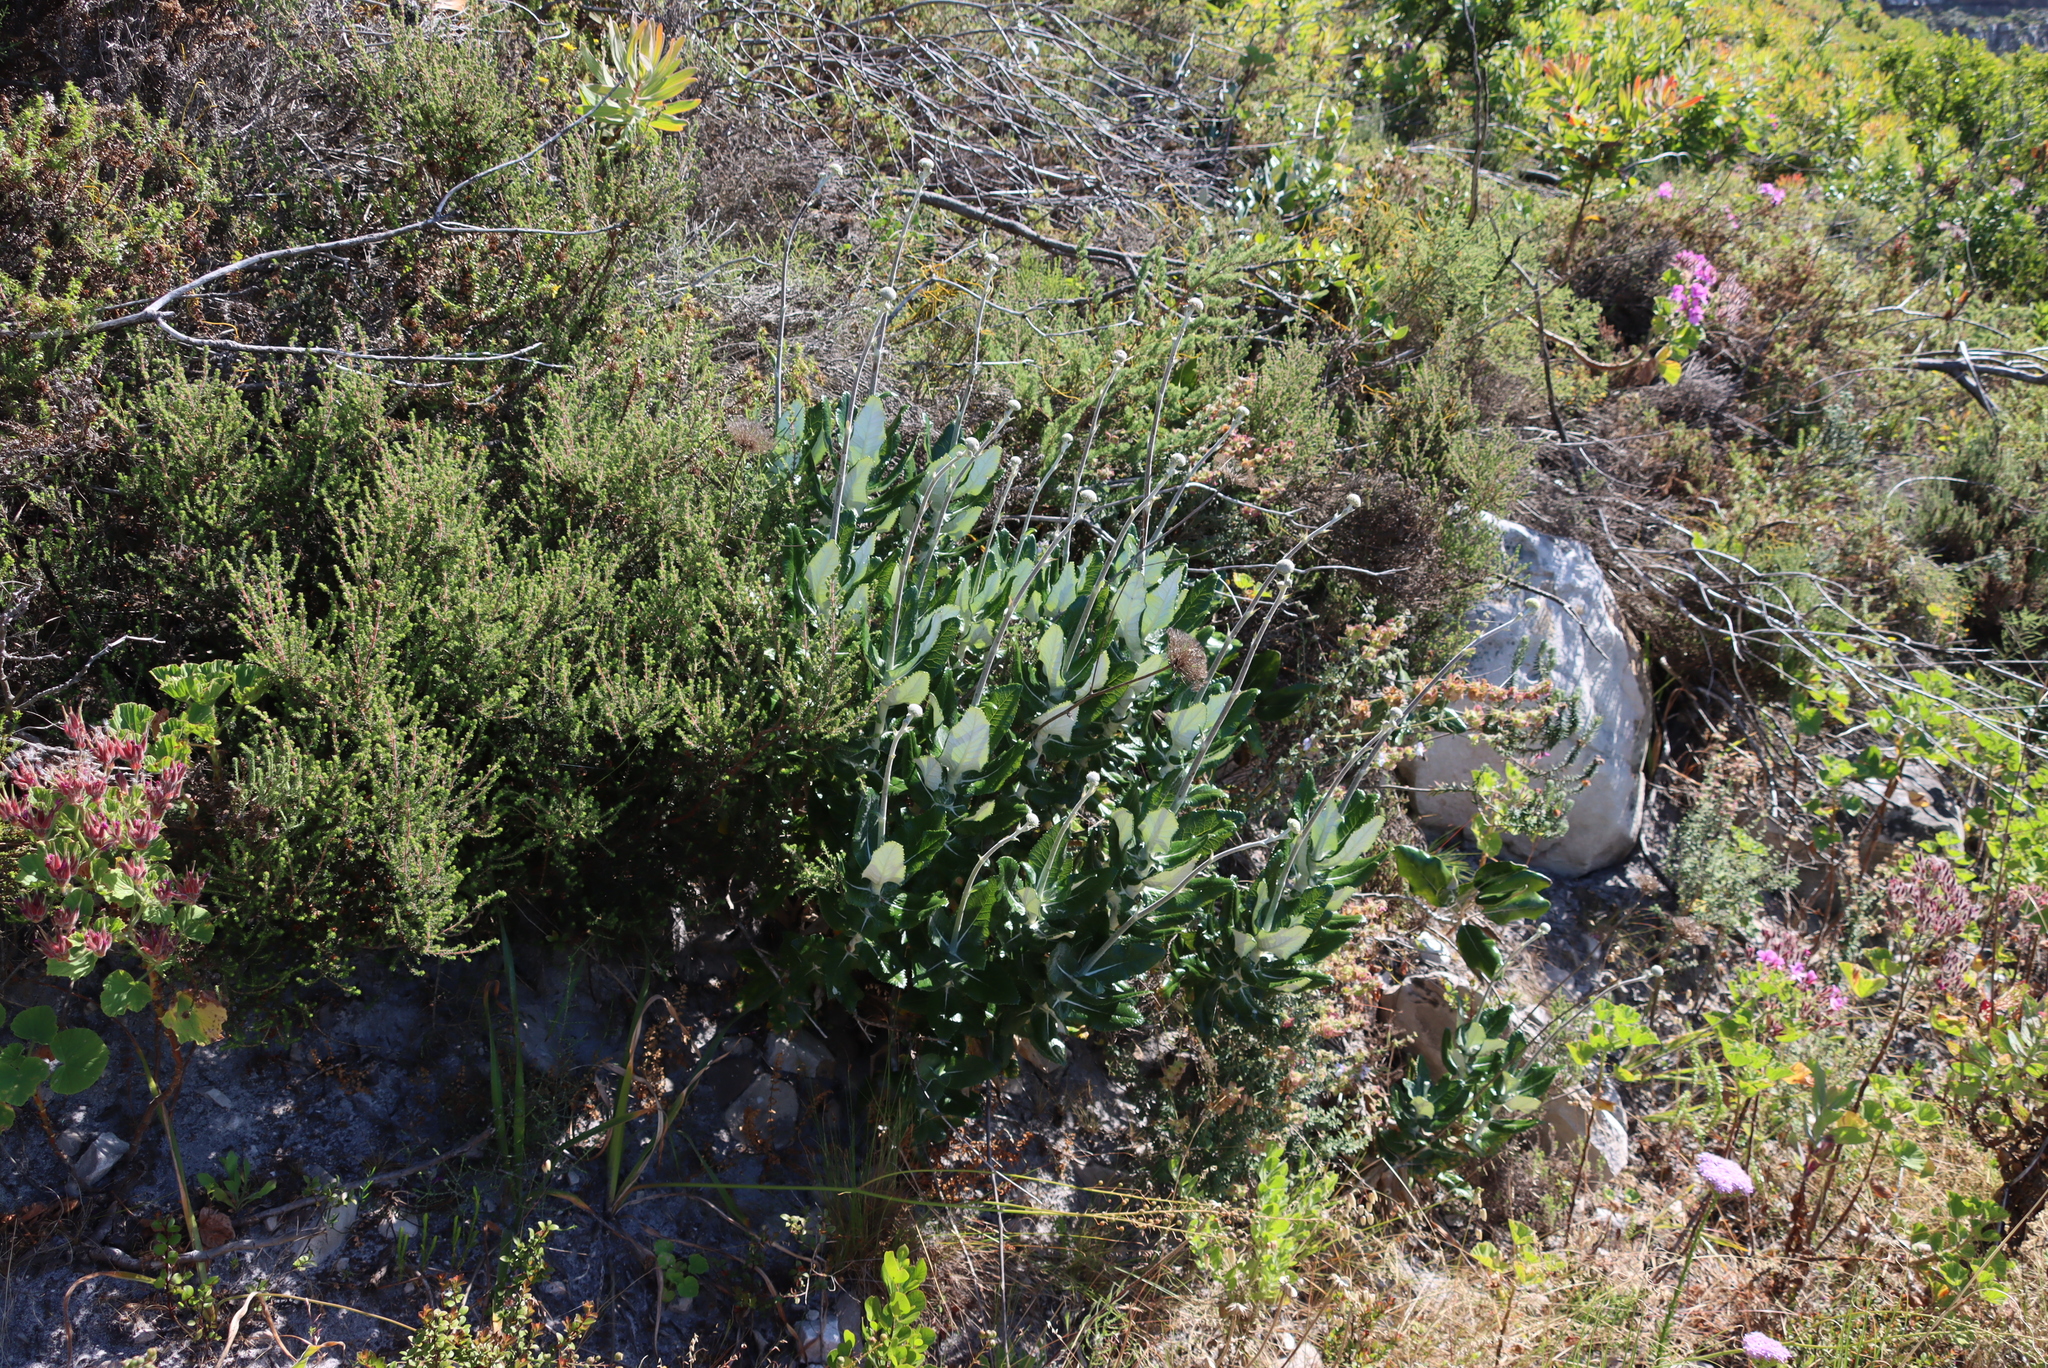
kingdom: Plantae
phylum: Tracheophyta
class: Magnoliopsida
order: Apiales
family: Apiaceae
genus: Hermas
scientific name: Hermas villosa
